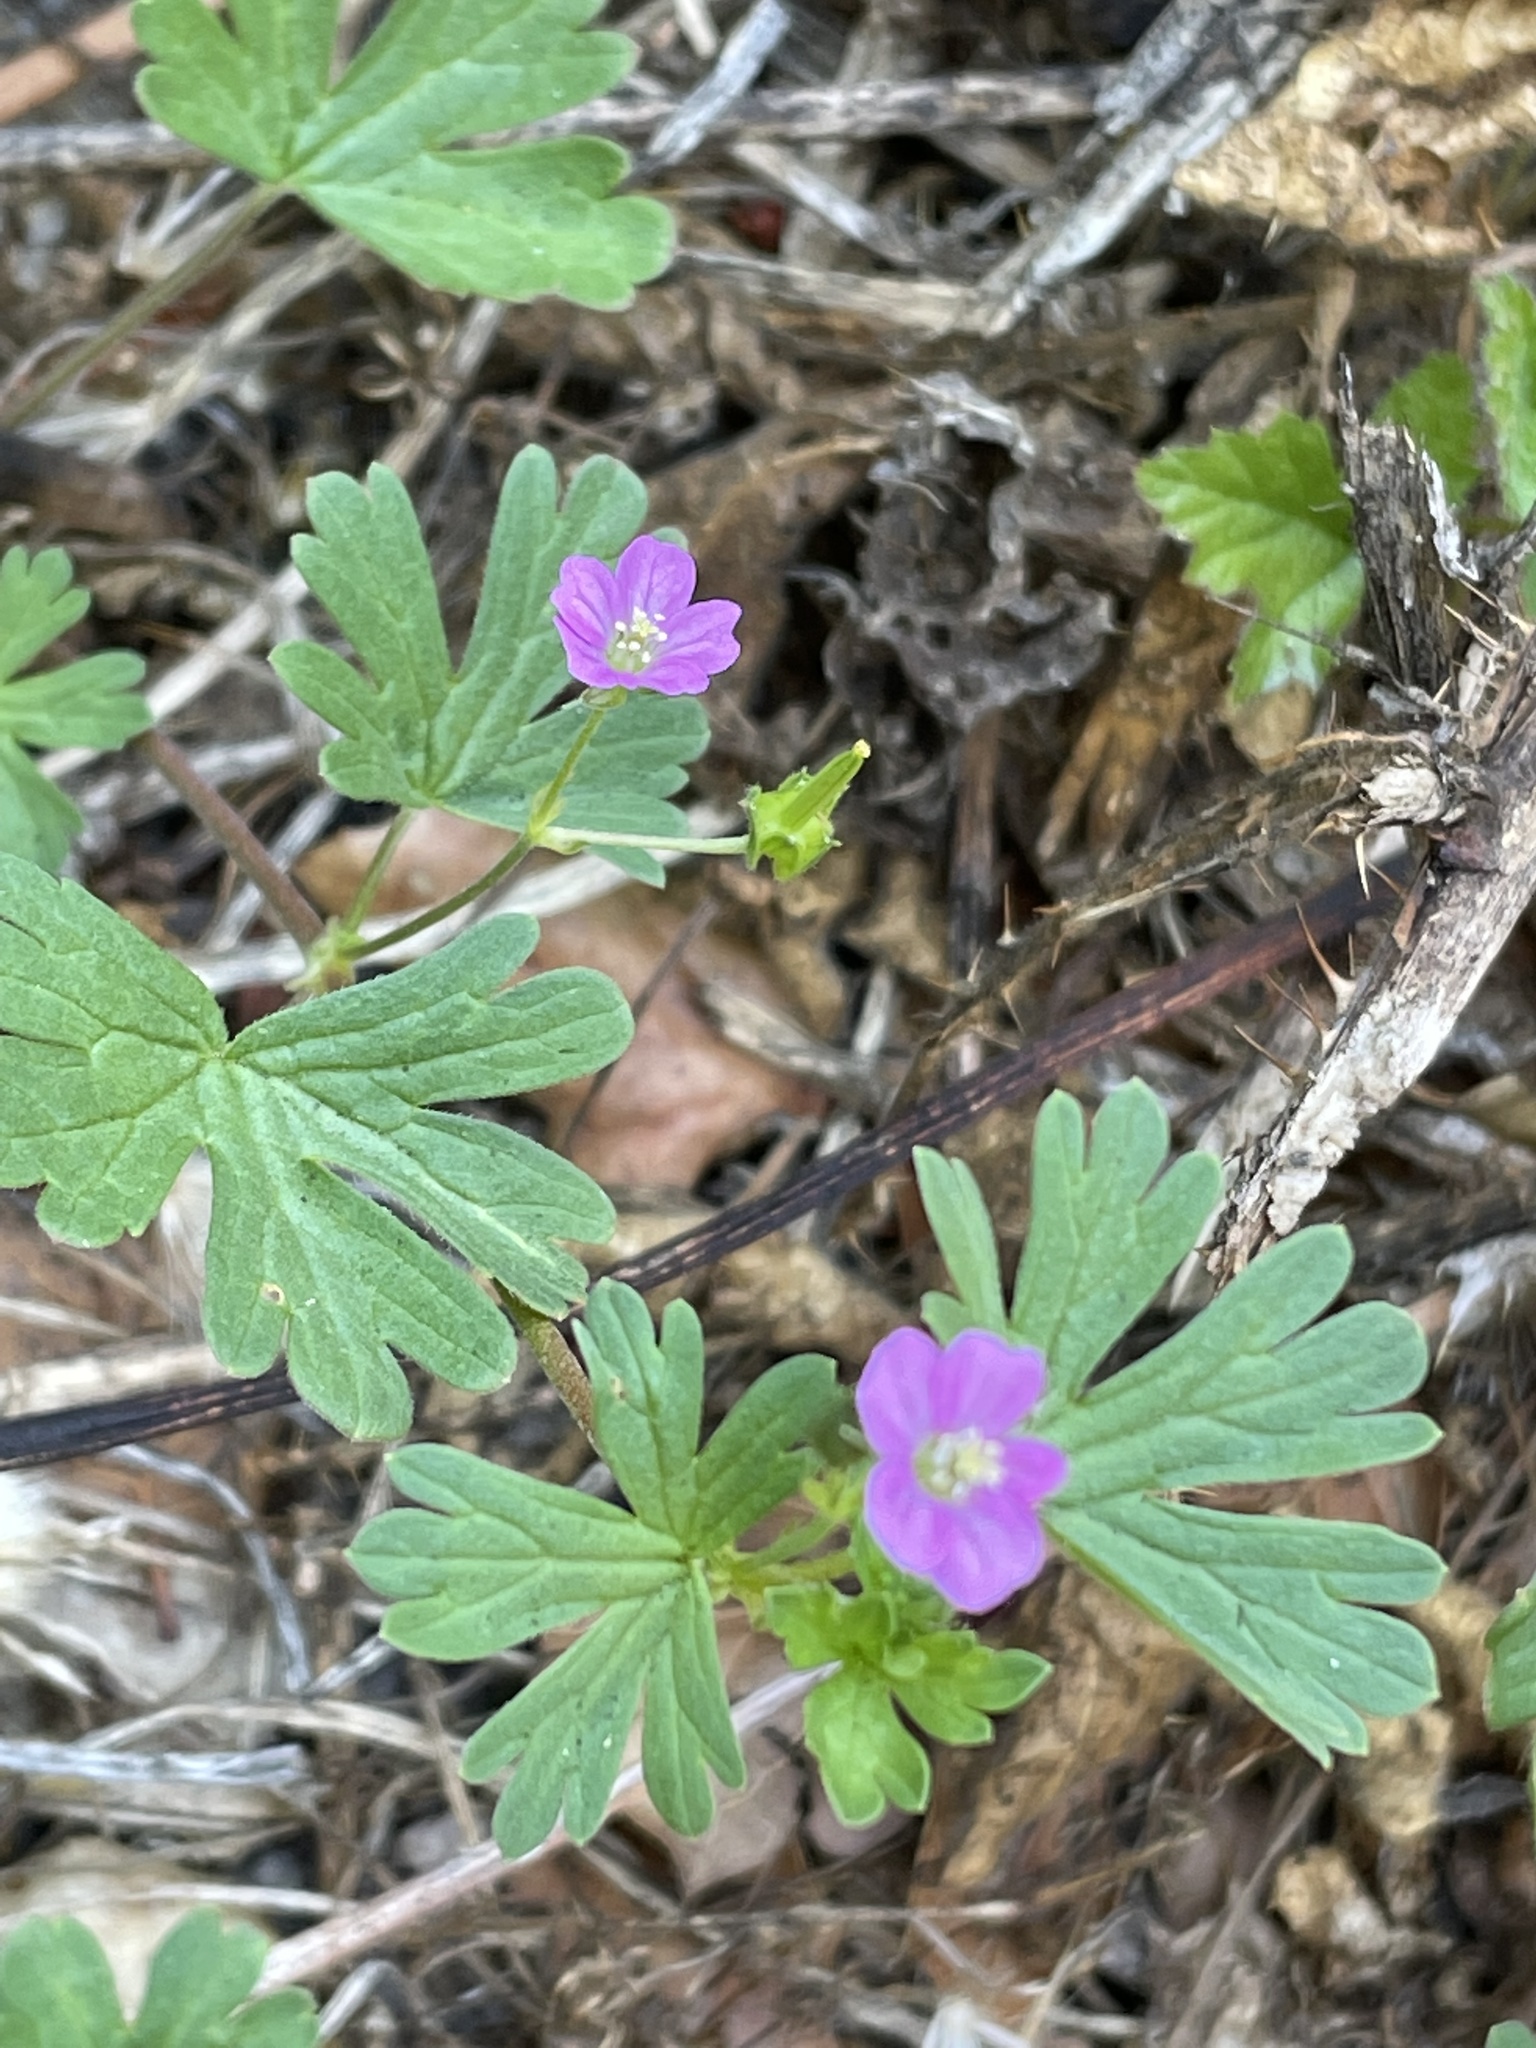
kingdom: Plantae
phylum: Tracheophyta
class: Magnoliopsida
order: Geraniales
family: Geraniaceae
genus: Geranium
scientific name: Geranium core-core
